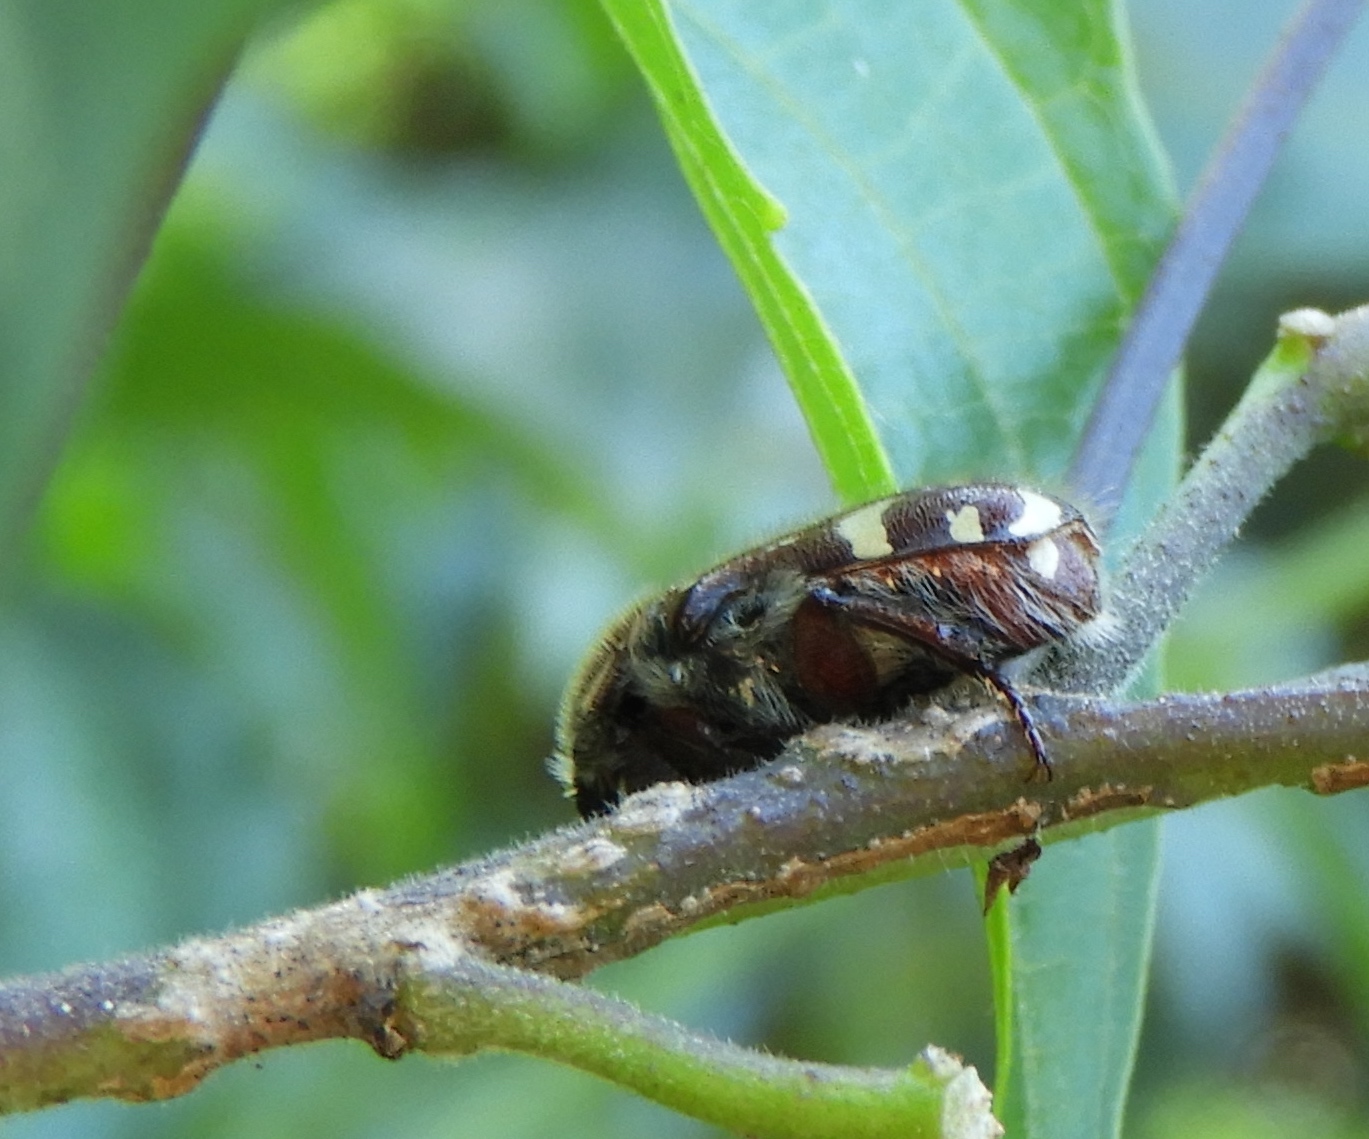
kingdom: Animalia
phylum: Arthropoda
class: Insecta
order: Coleoptera
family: Scarabaeidae
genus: Euphoria
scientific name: Euphoria
